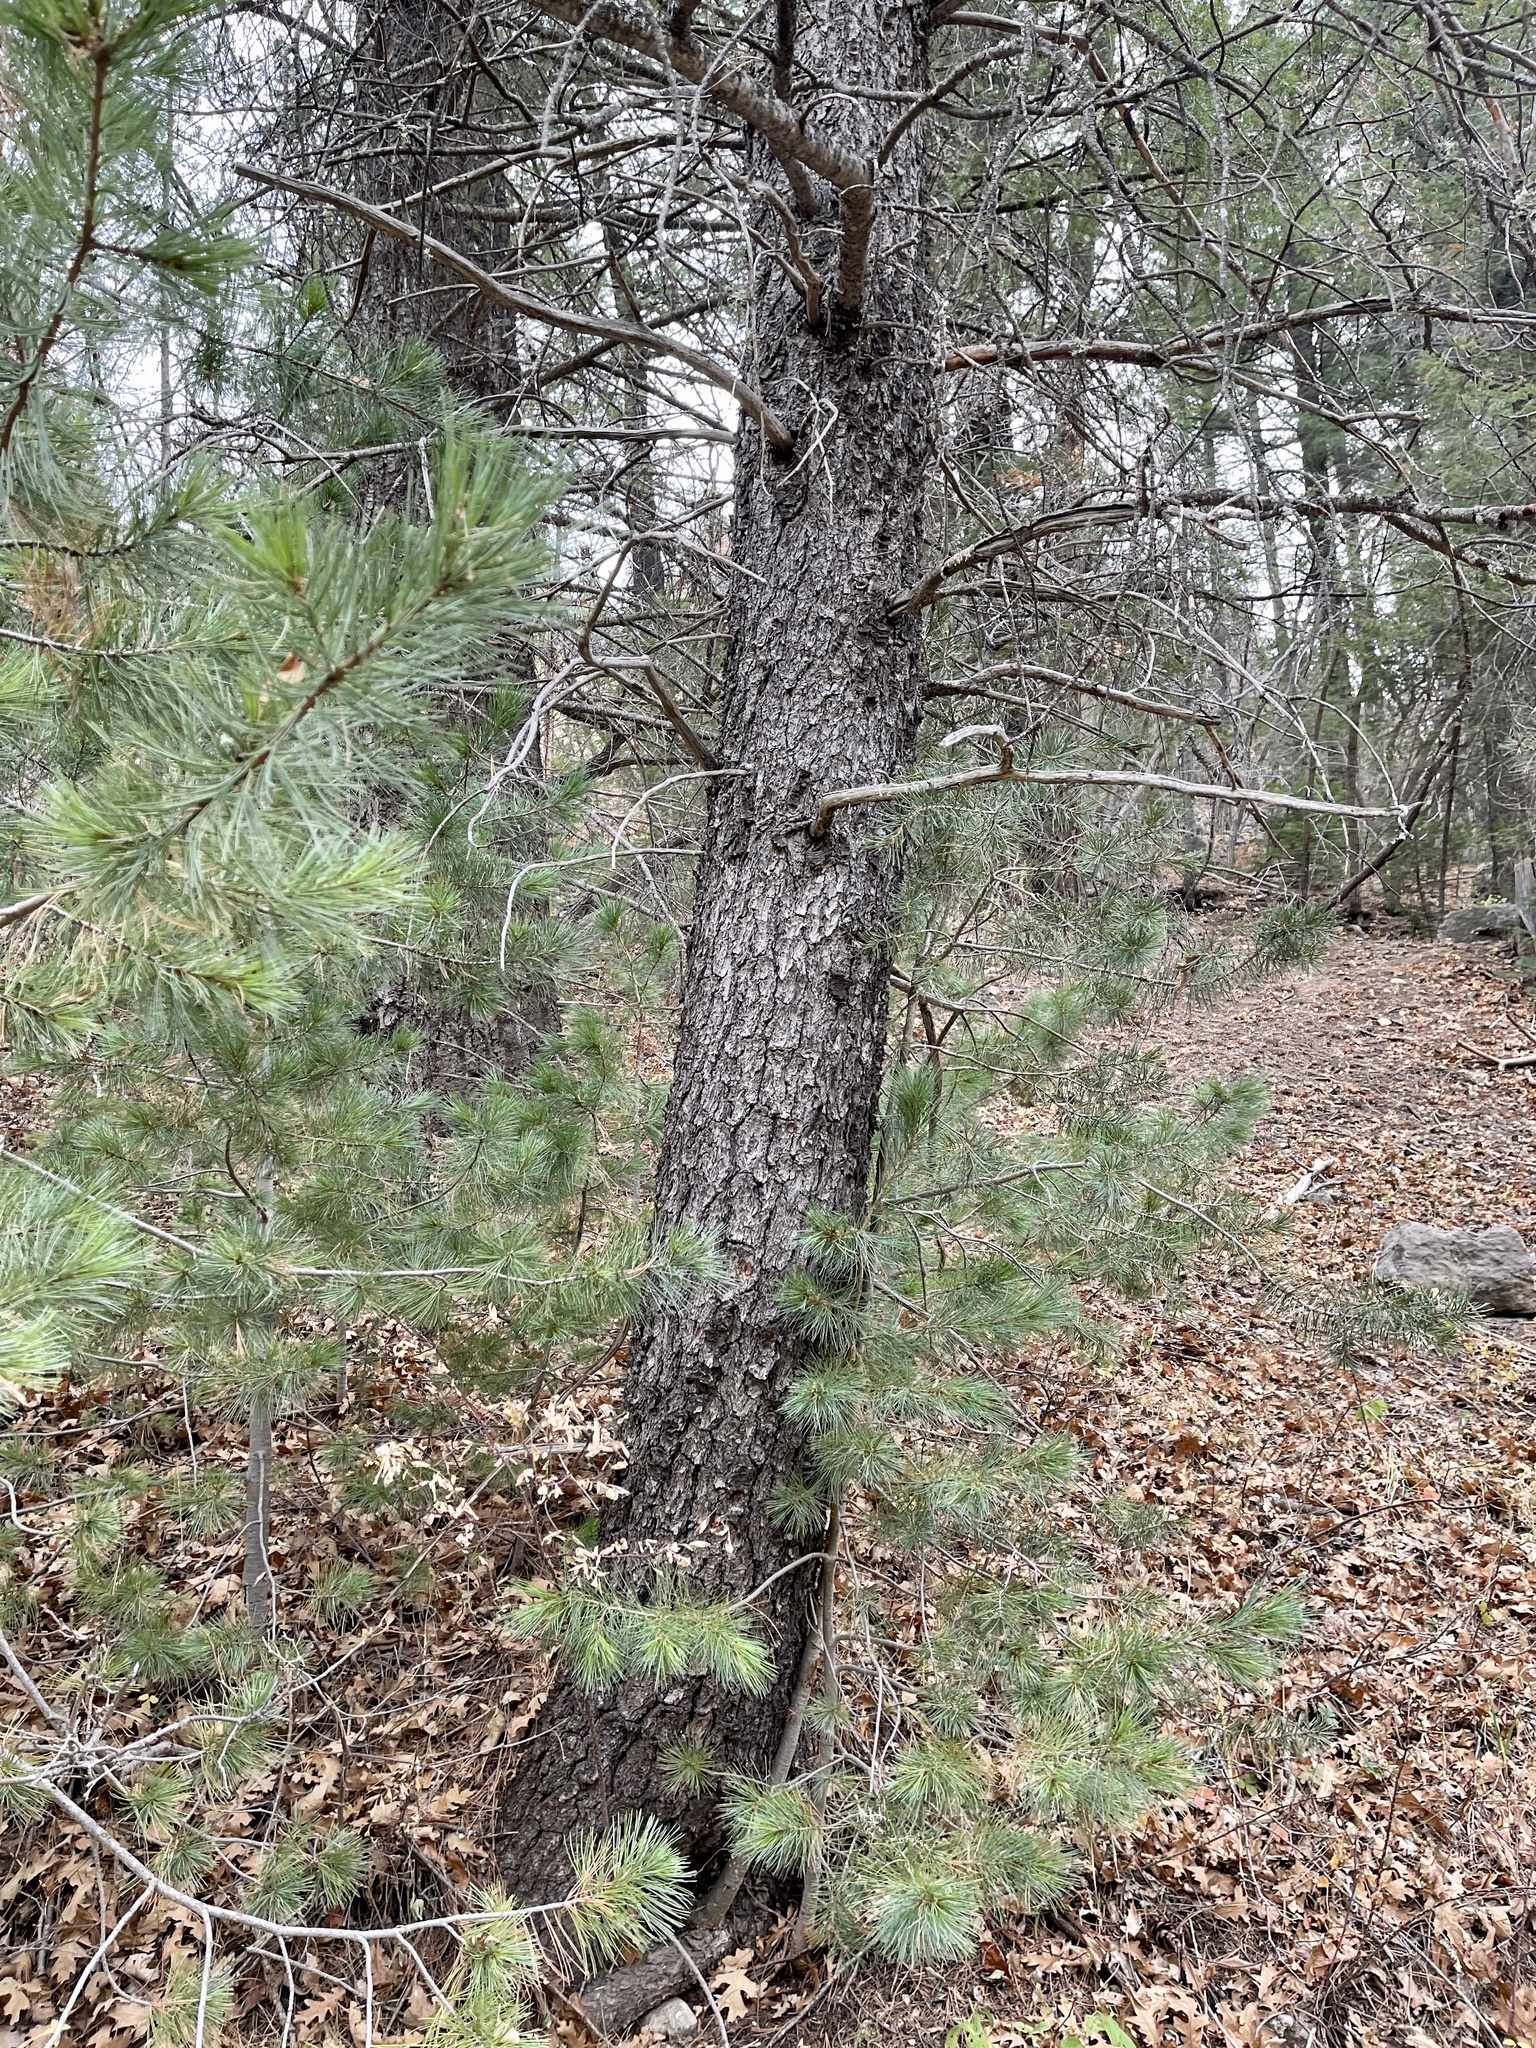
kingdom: Plantae
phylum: Tracheophyta
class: Pinopsida
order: Pinales
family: Pinaceae
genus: Pinus
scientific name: Pinus strobiformis
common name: Southwestern white pine
